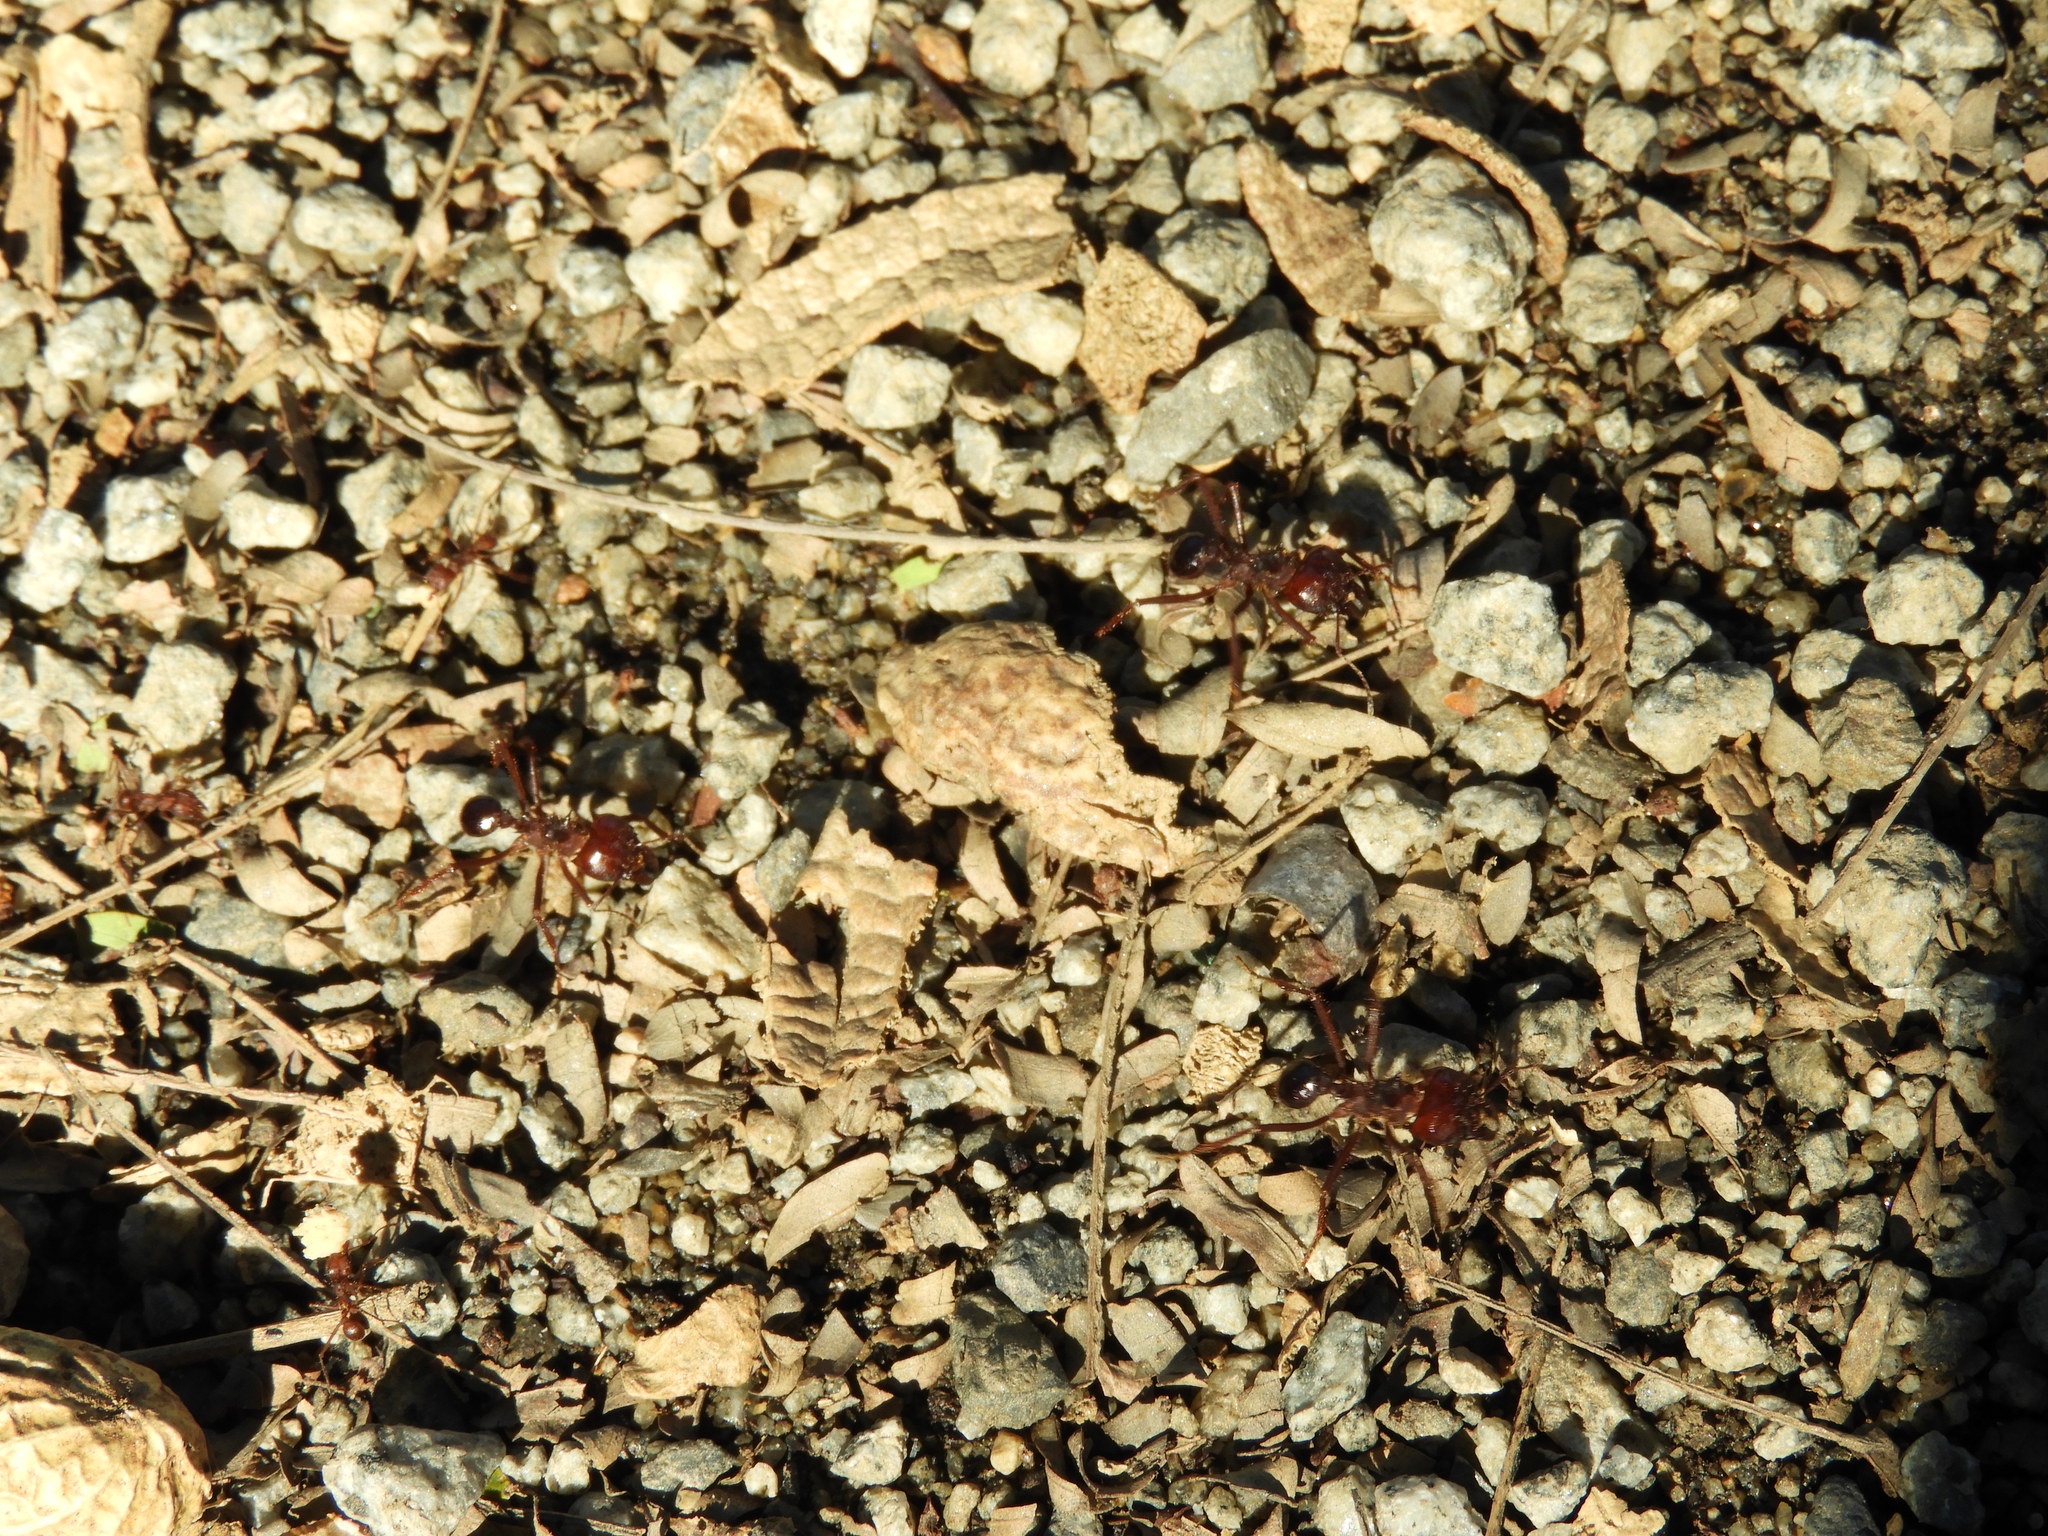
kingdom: Animalia
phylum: Arthropoda
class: Insecta
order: Hymenoptera
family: Formicidae
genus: Atta
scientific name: Atta mexicana
